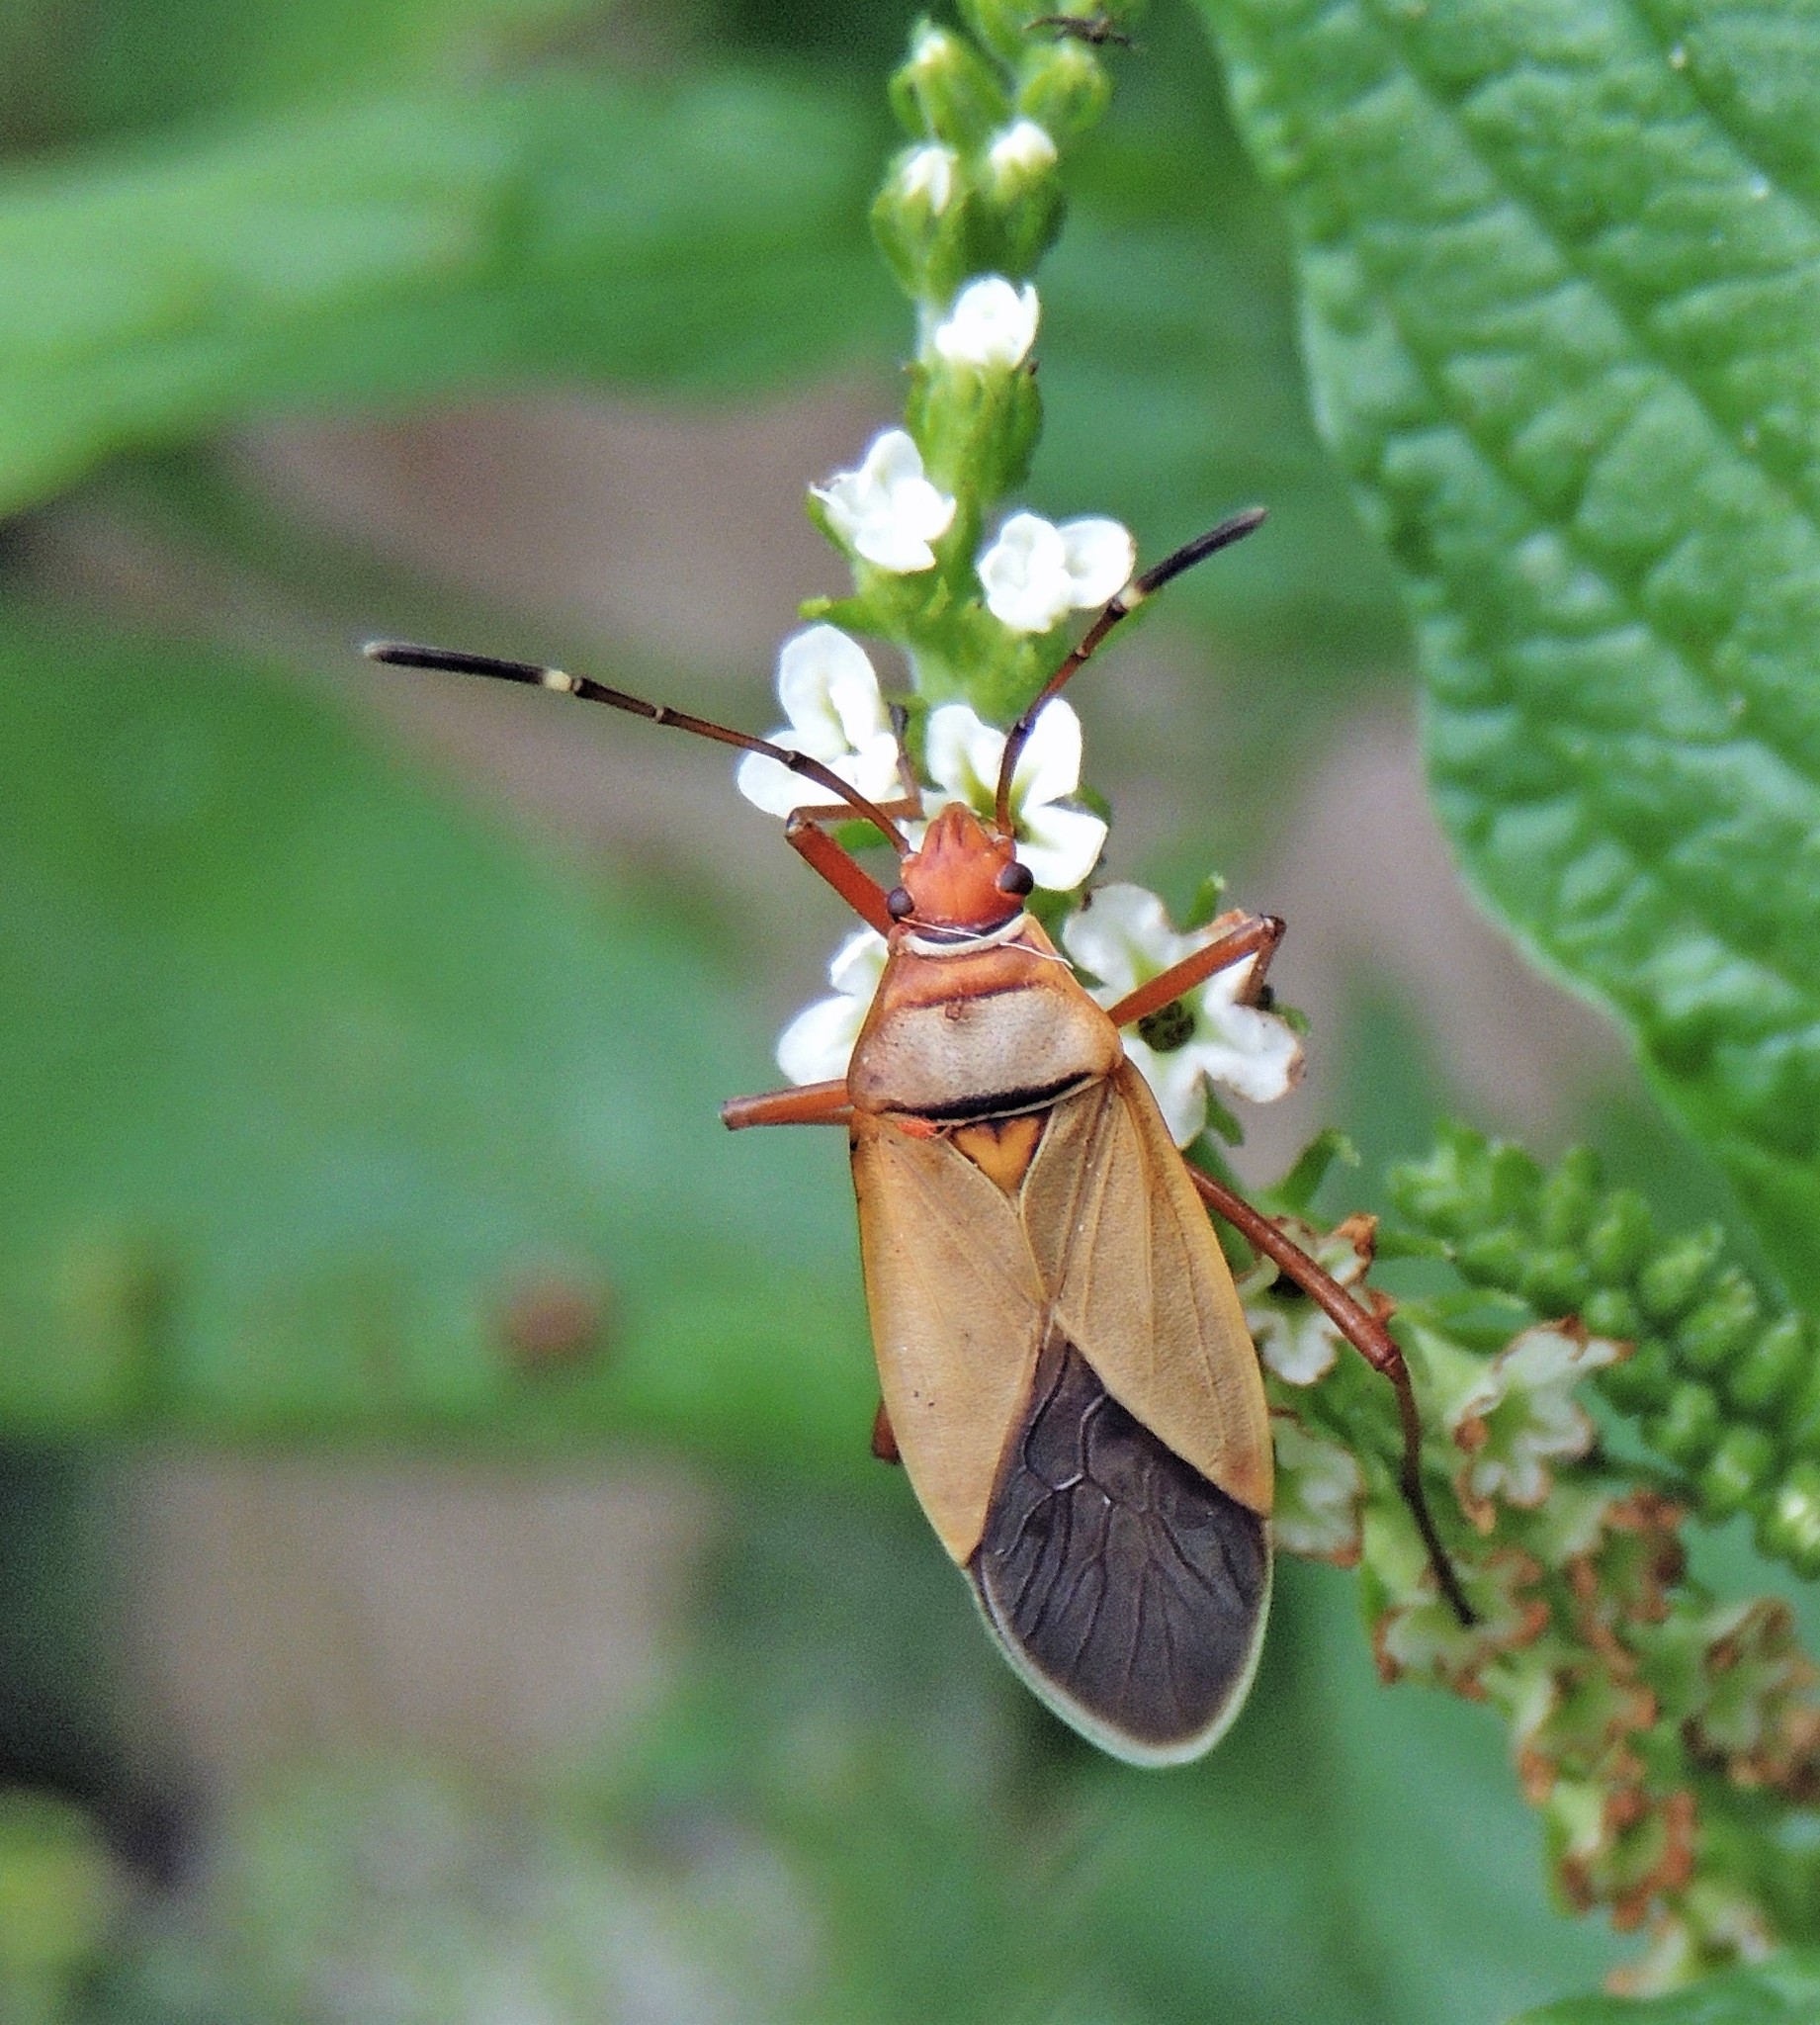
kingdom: Animalia
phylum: Arthropoda
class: Insecta
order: Hemiptera
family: Pyrrhocoridae
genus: Dysdercus
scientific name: Dysdercus
